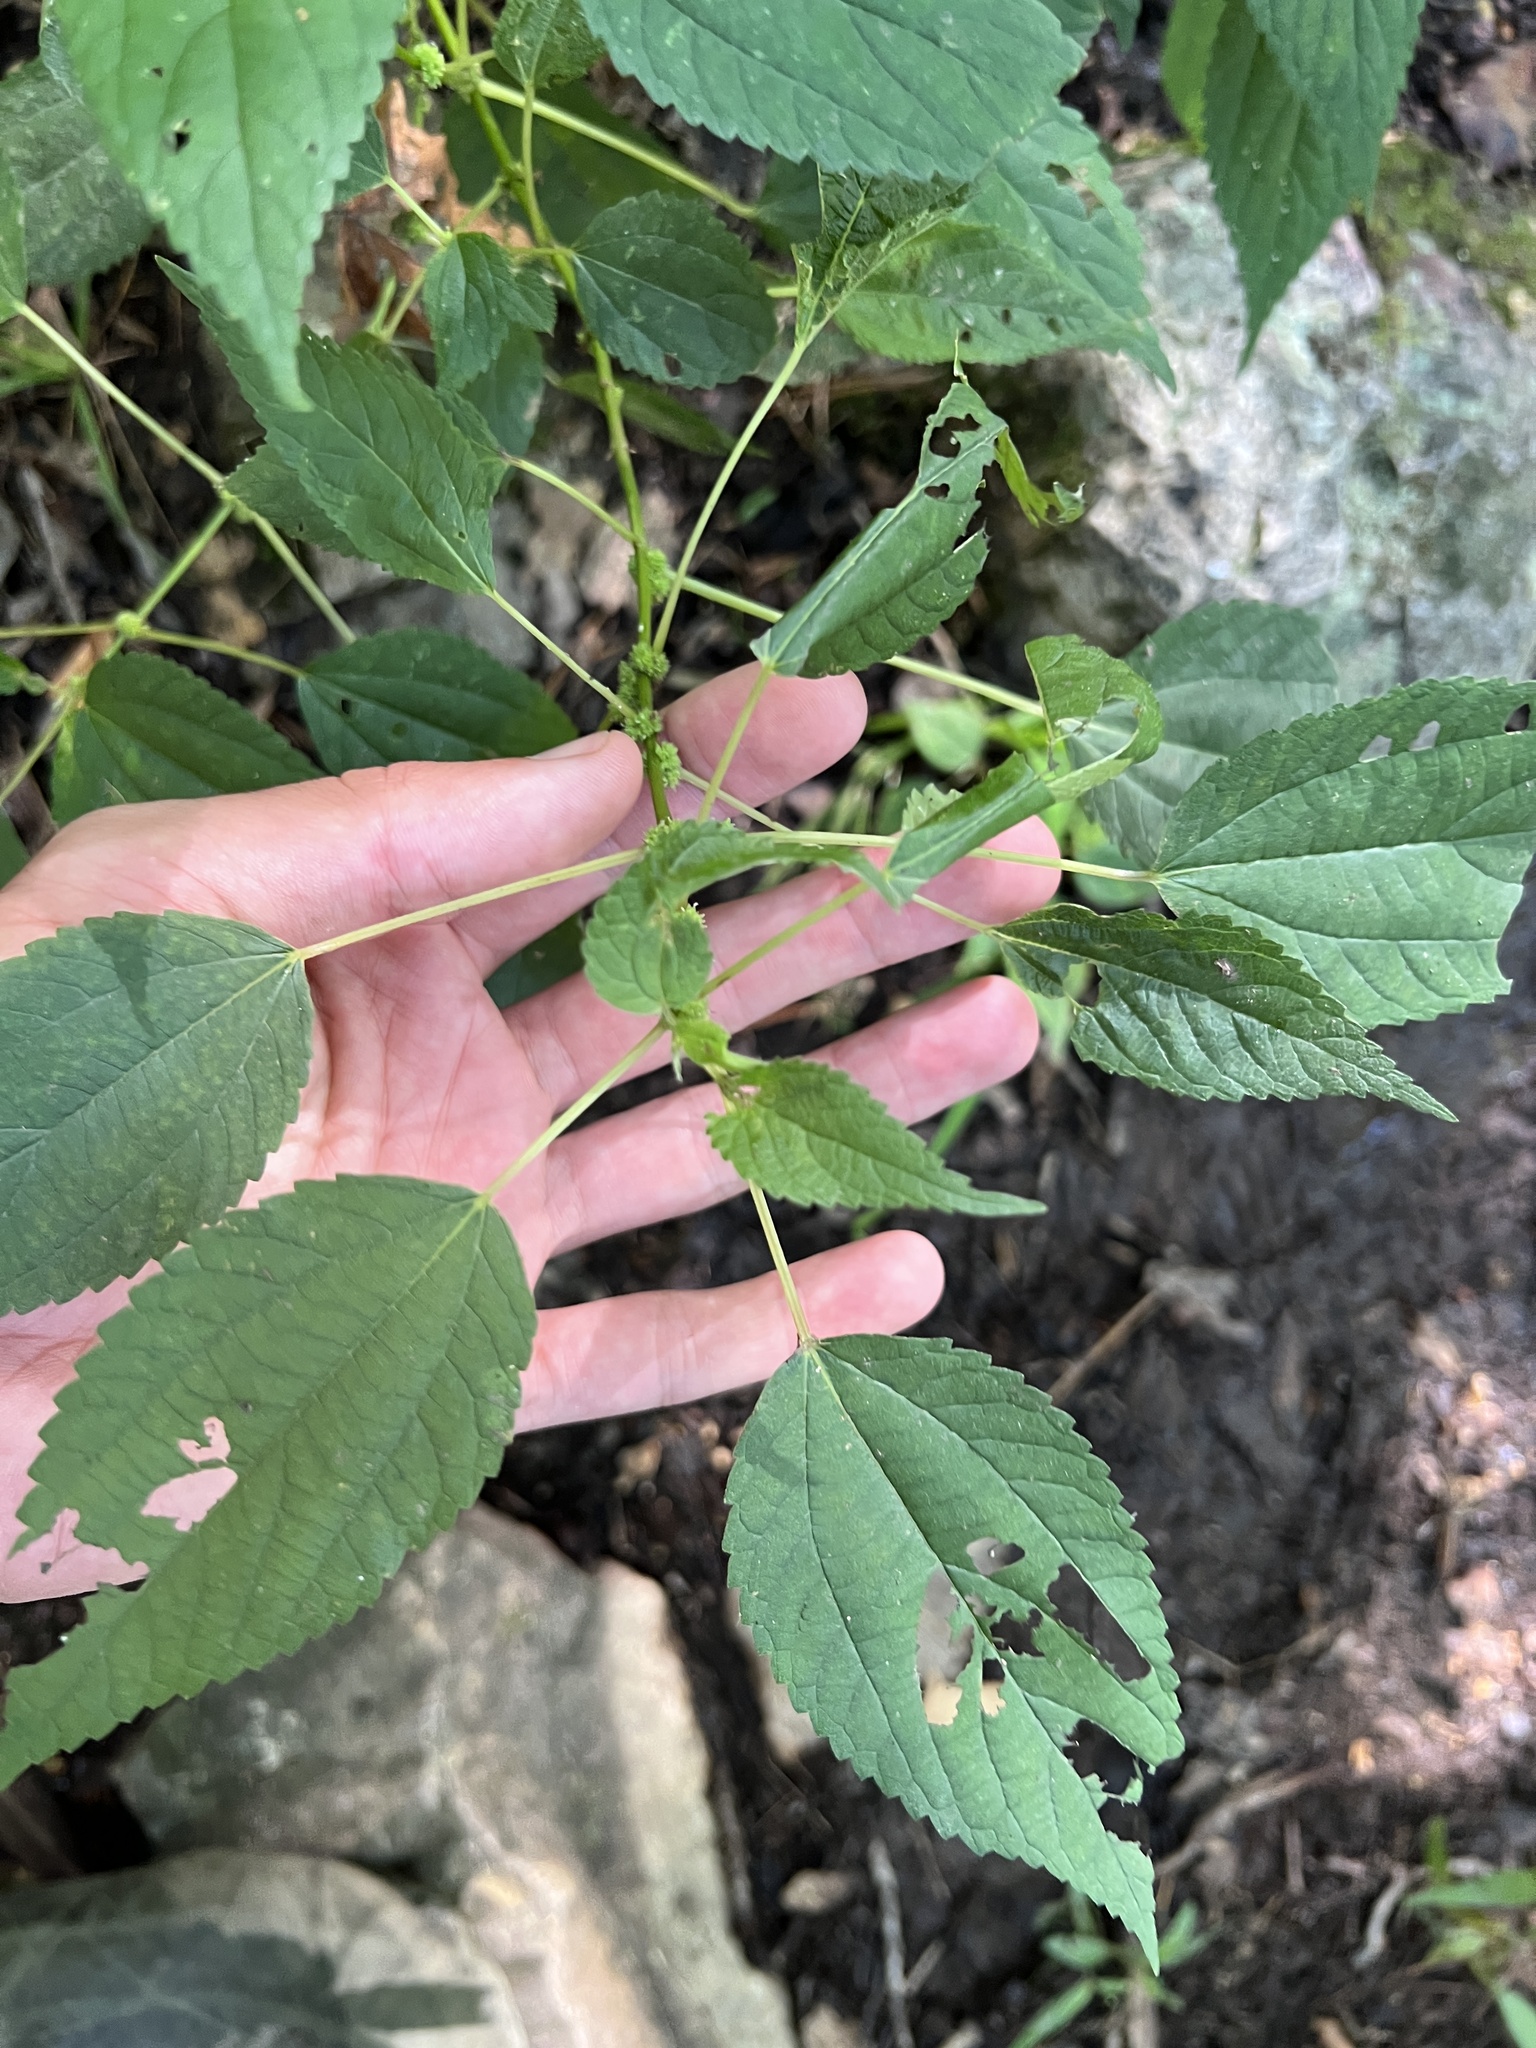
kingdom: Plantae
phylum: Tracheophyta
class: Magnoliopsida
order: Rosales
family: Urticaceae
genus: Boehmeria
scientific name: Boehmeria cylindrica
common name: Bog-hemp
